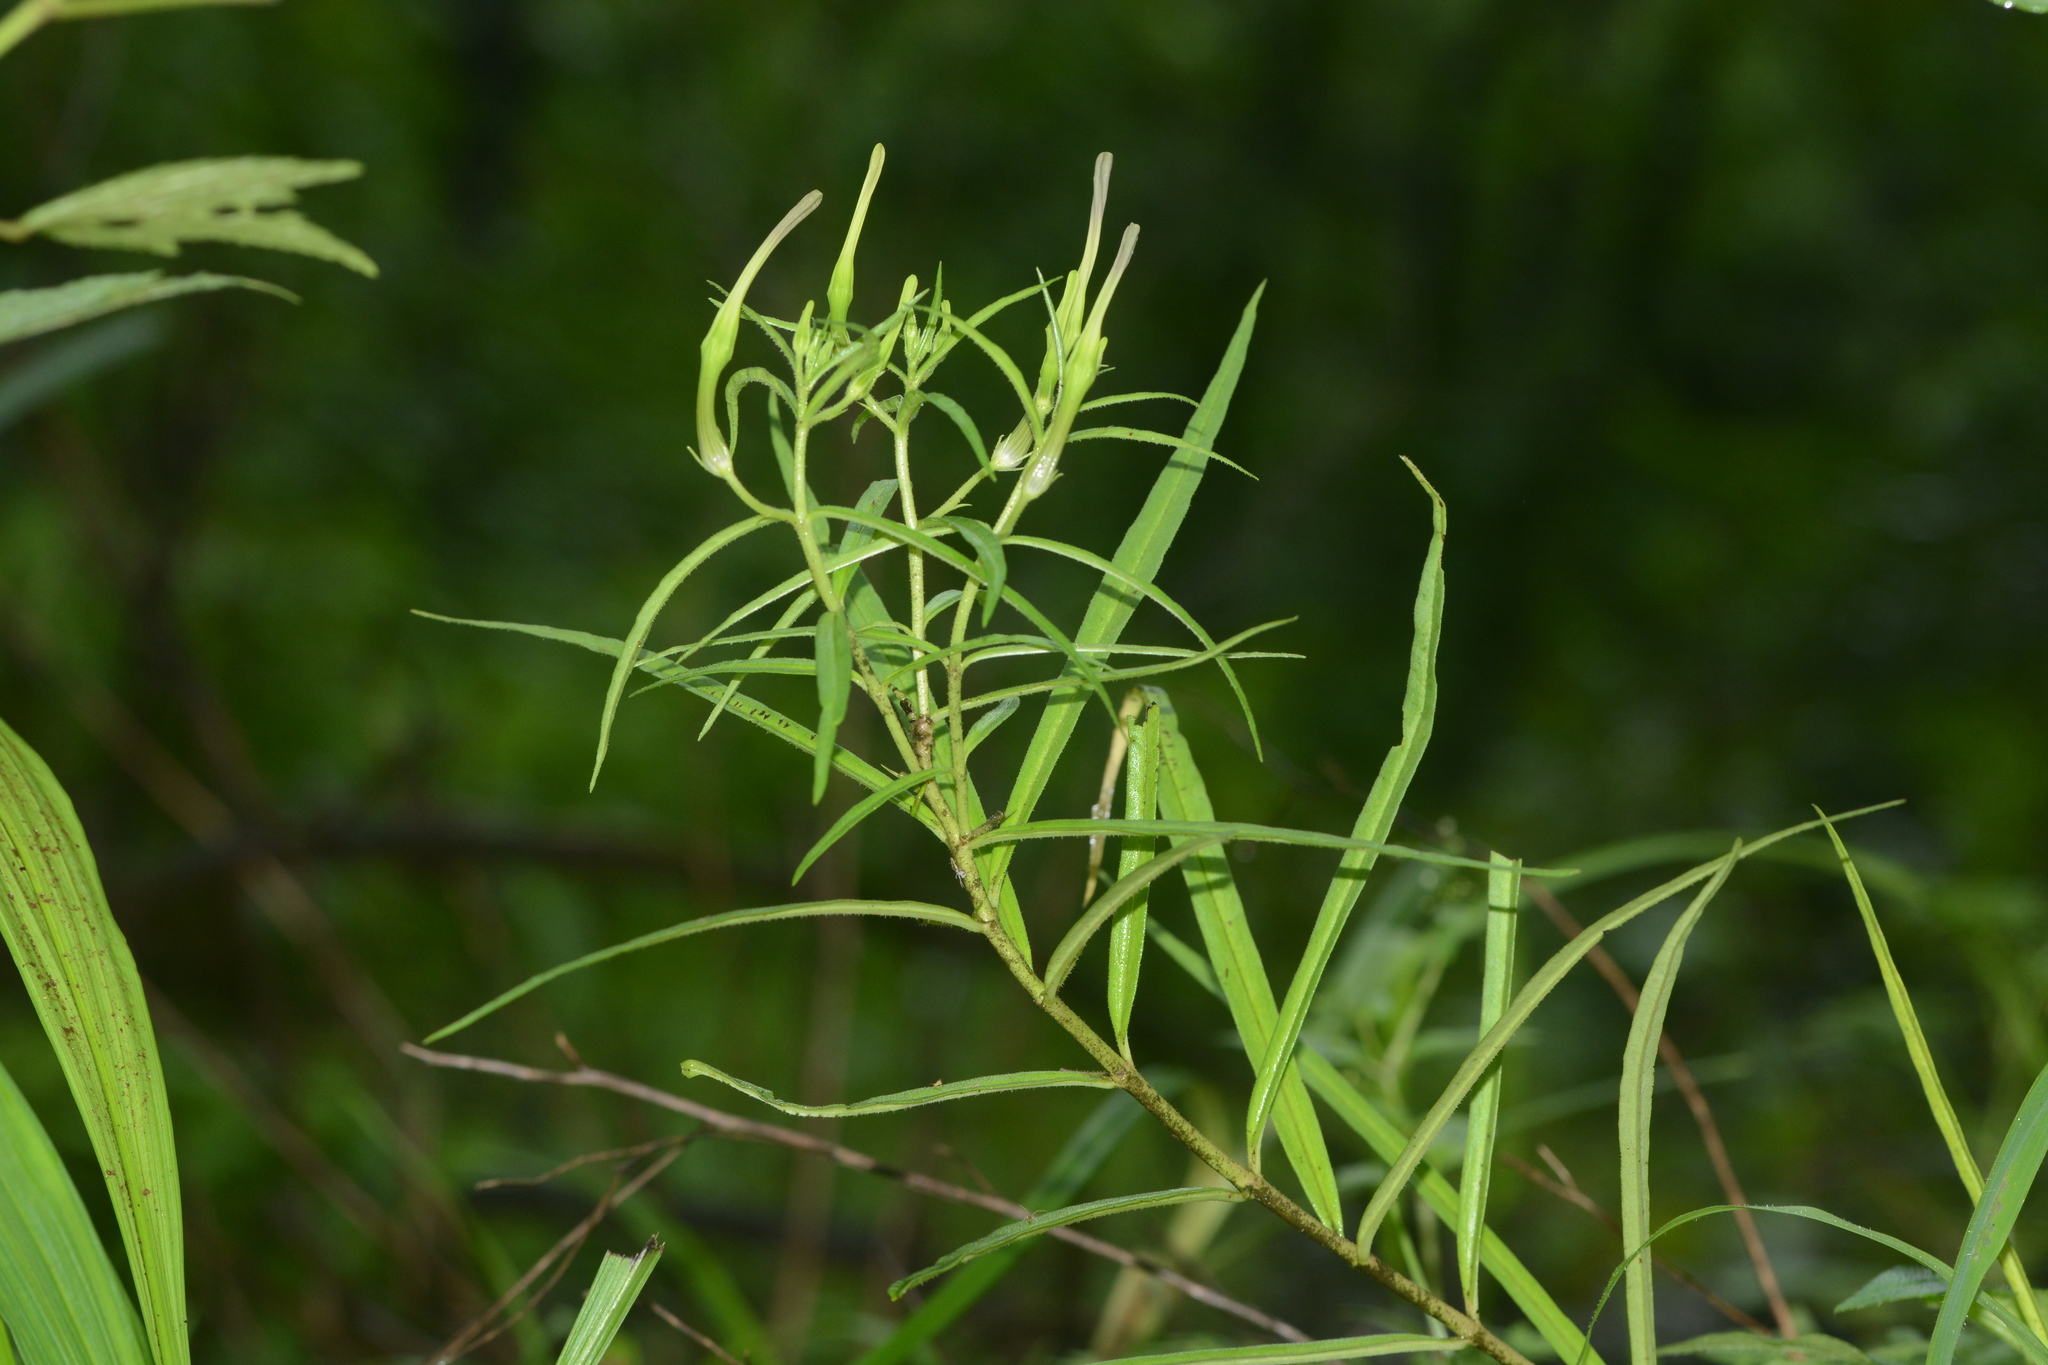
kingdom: Plantae
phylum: Tracheophyta
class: Magnoliopsida
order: Gentianales
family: Apocynaceae
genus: Ceropegia
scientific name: Ceropegia attenuata
